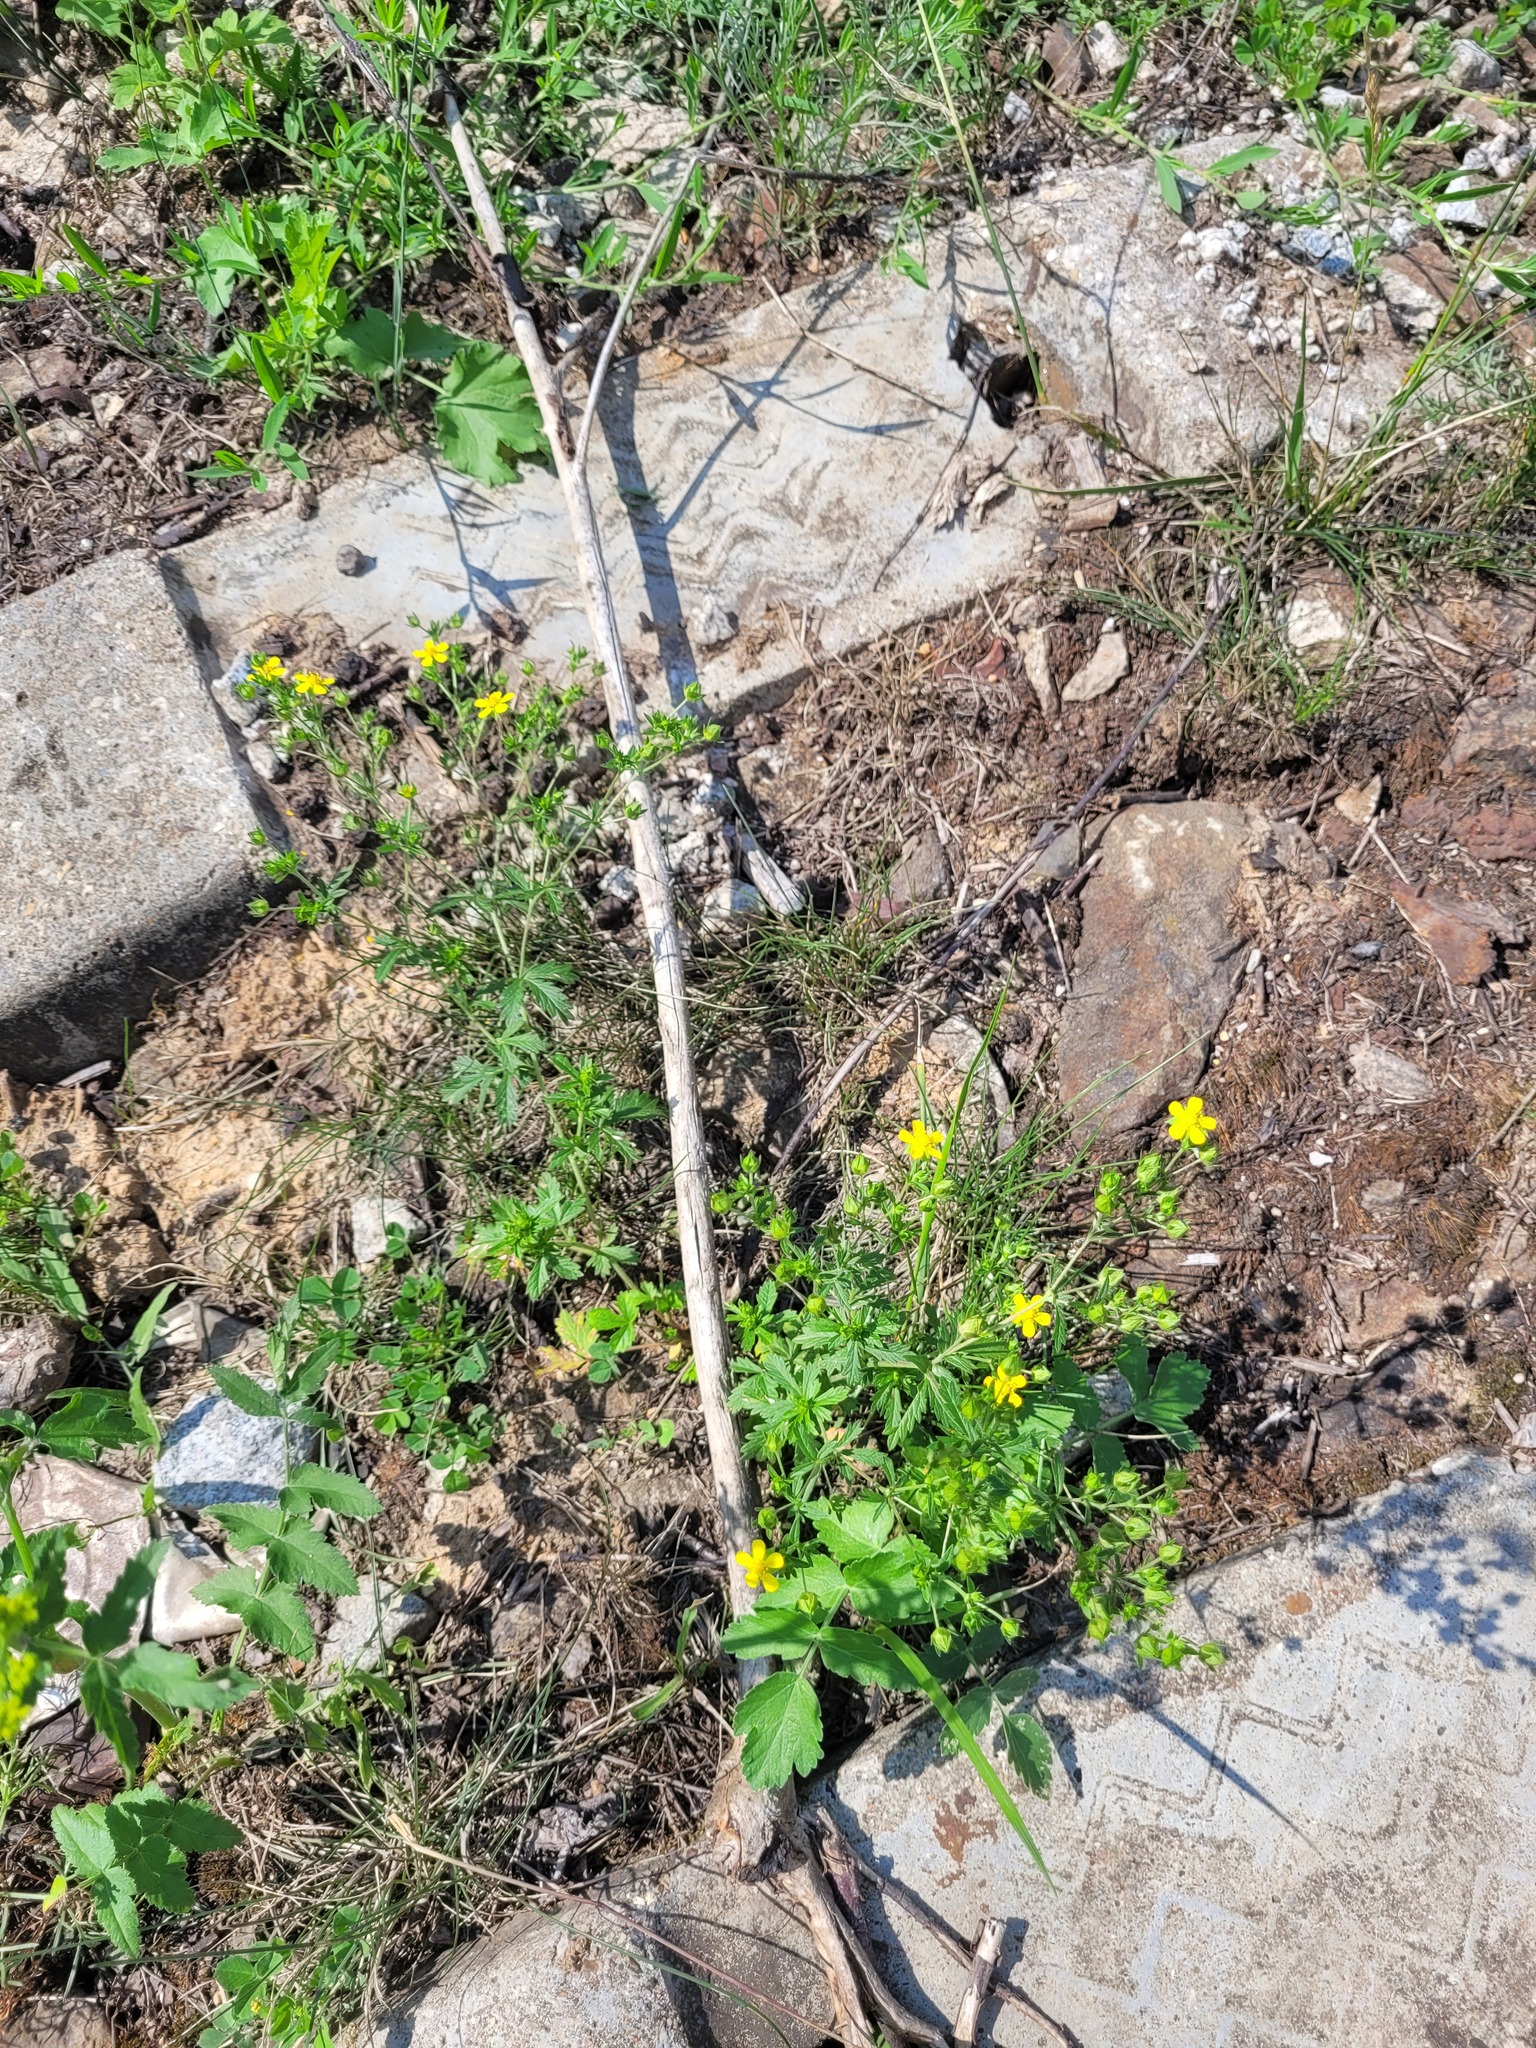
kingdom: Plantae
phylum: Tracheophyta
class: Magnoliopsida
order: Rosales
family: Rosaceae
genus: Potentilla
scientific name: Potentilla intermedia
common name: Downy cinquefoil
